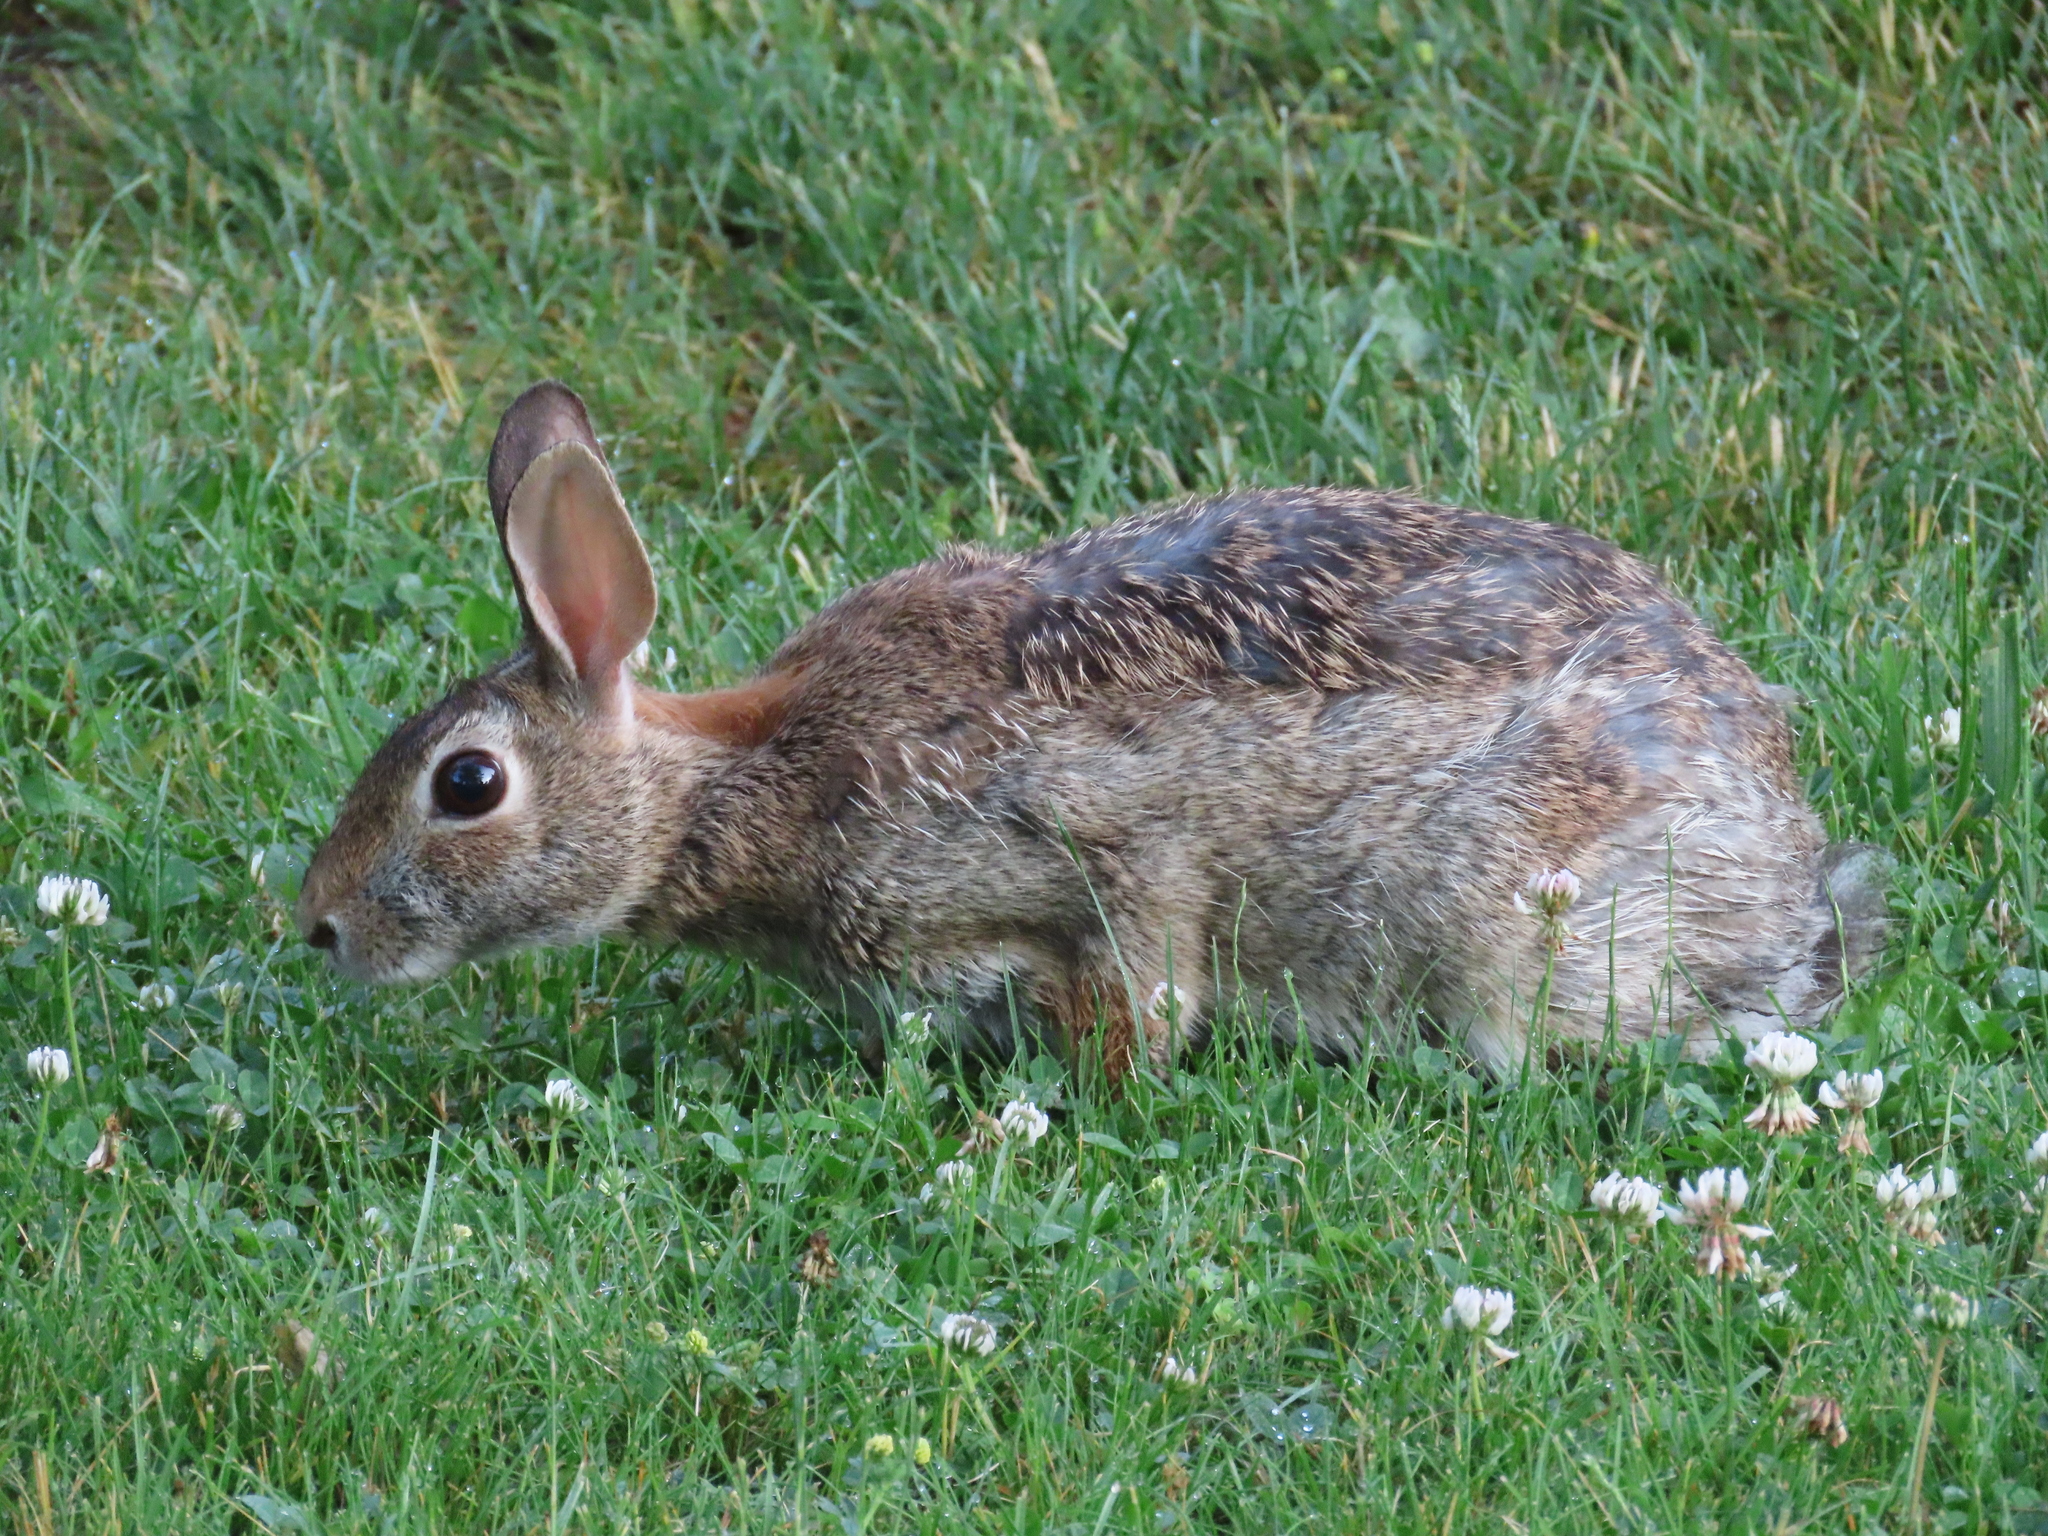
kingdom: Animalia
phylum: Chordata
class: Mammalia
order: Lagomorpha
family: Leporidae
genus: Sylvilagus
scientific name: Sylvilagus floridanus
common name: Eastern cottontail
